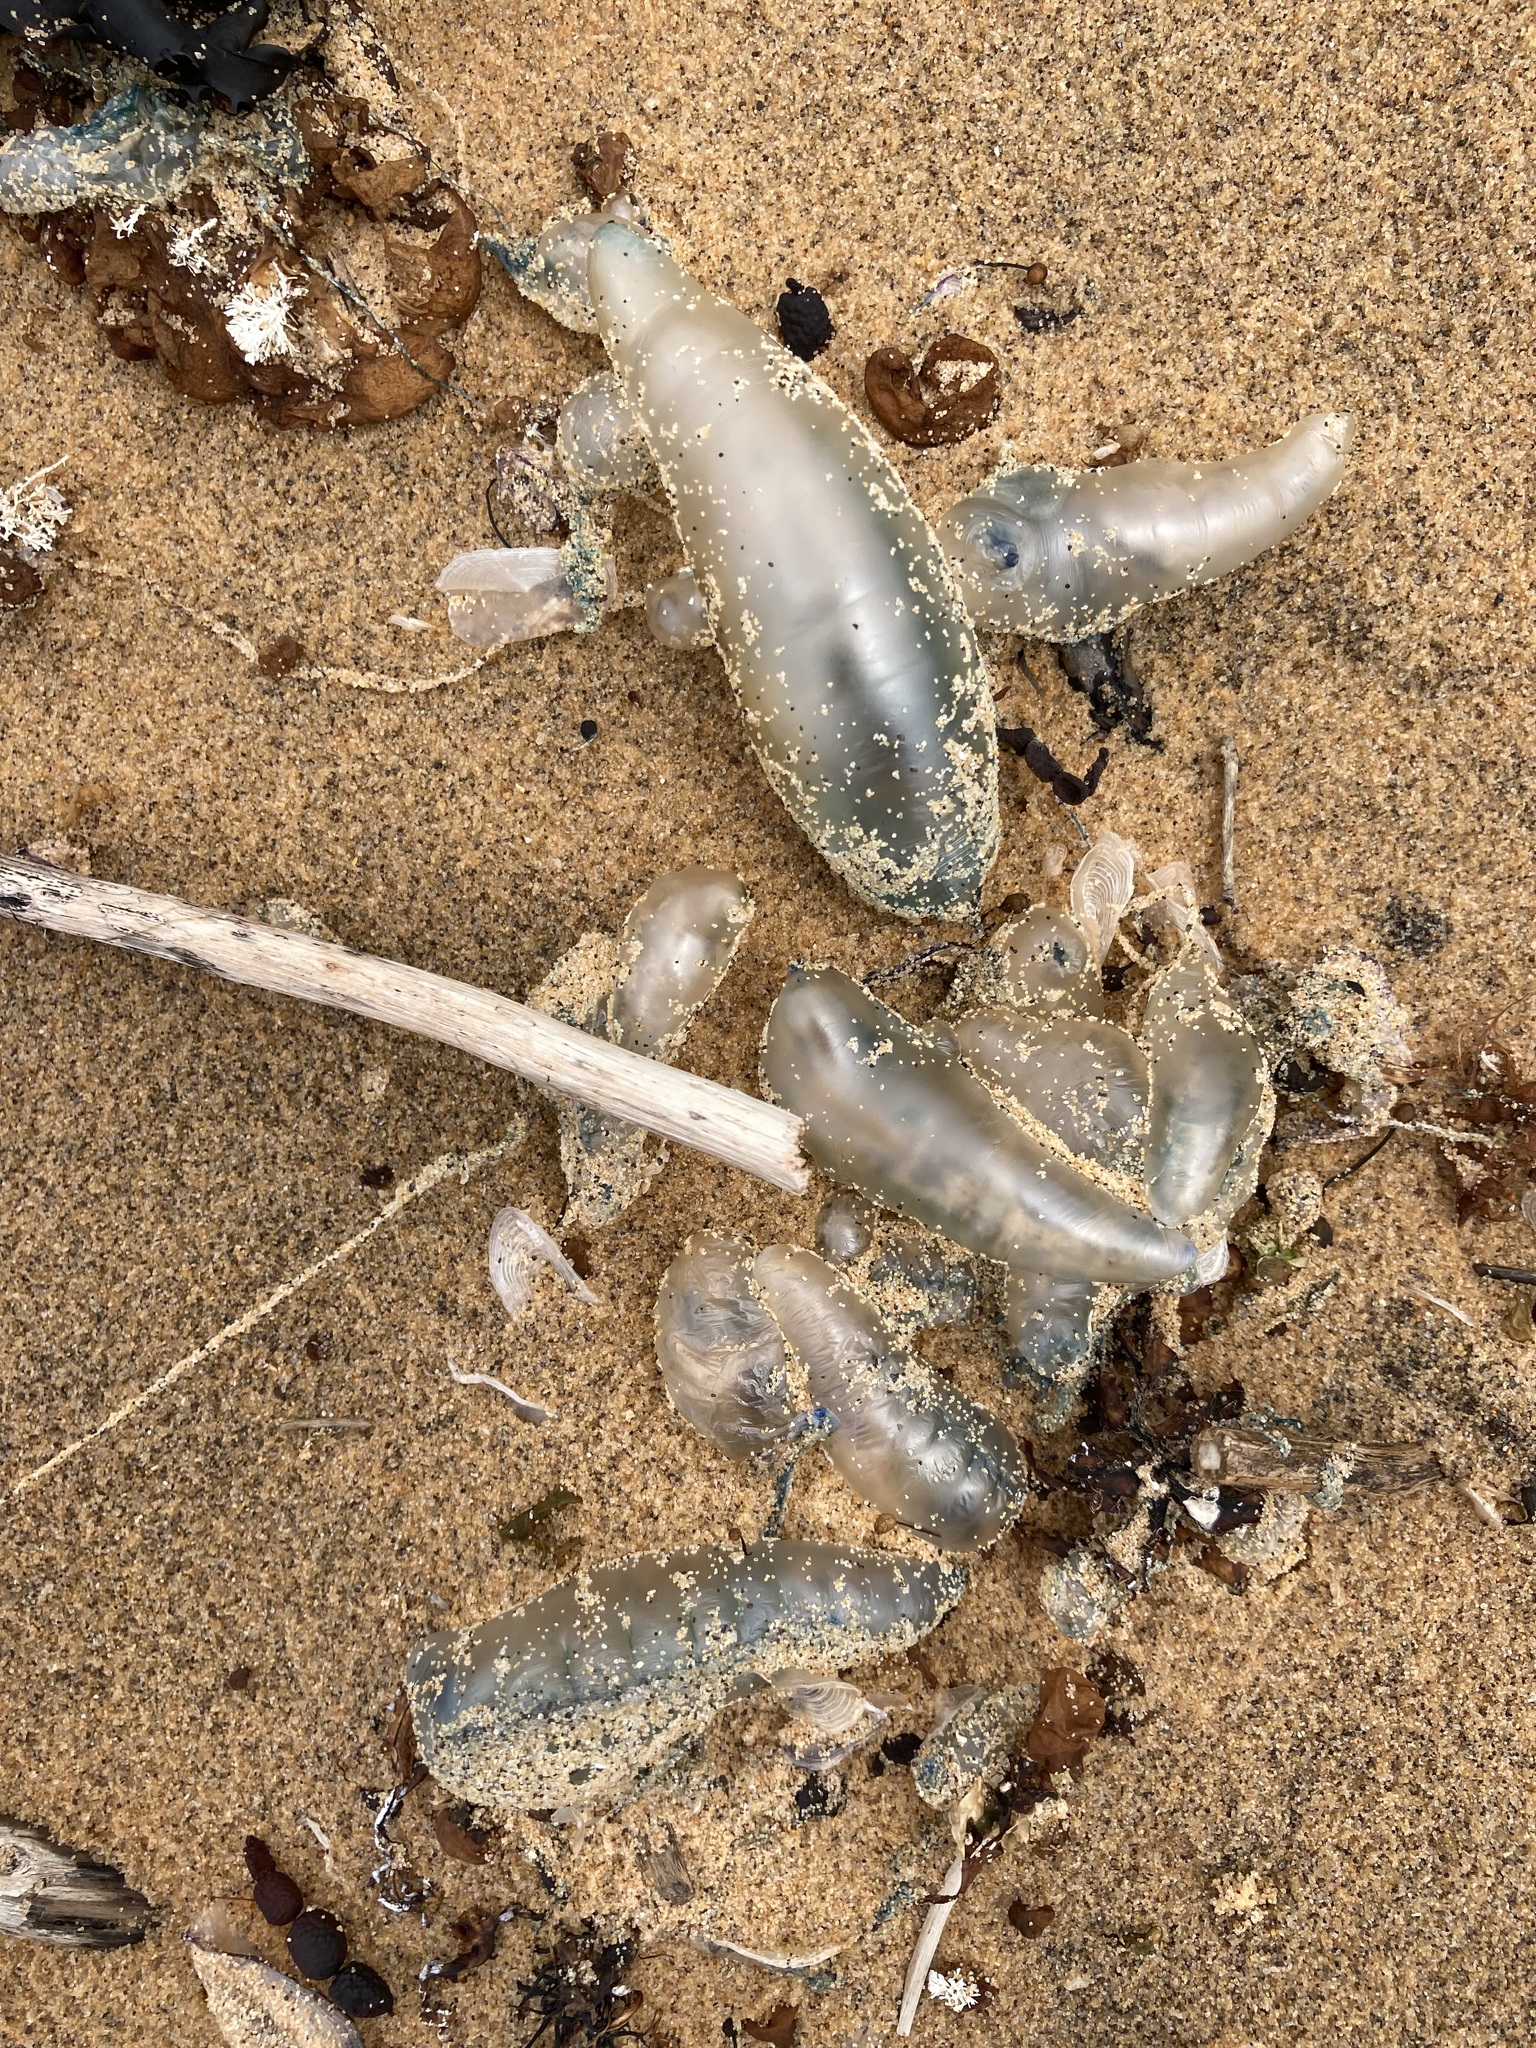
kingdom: Animalia
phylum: Cnidaria
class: Hydrozoa
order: Siphonophorae
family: Physaliidae
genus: Physalia
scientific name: Physalia physalis
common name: Portuguese man-of-war
